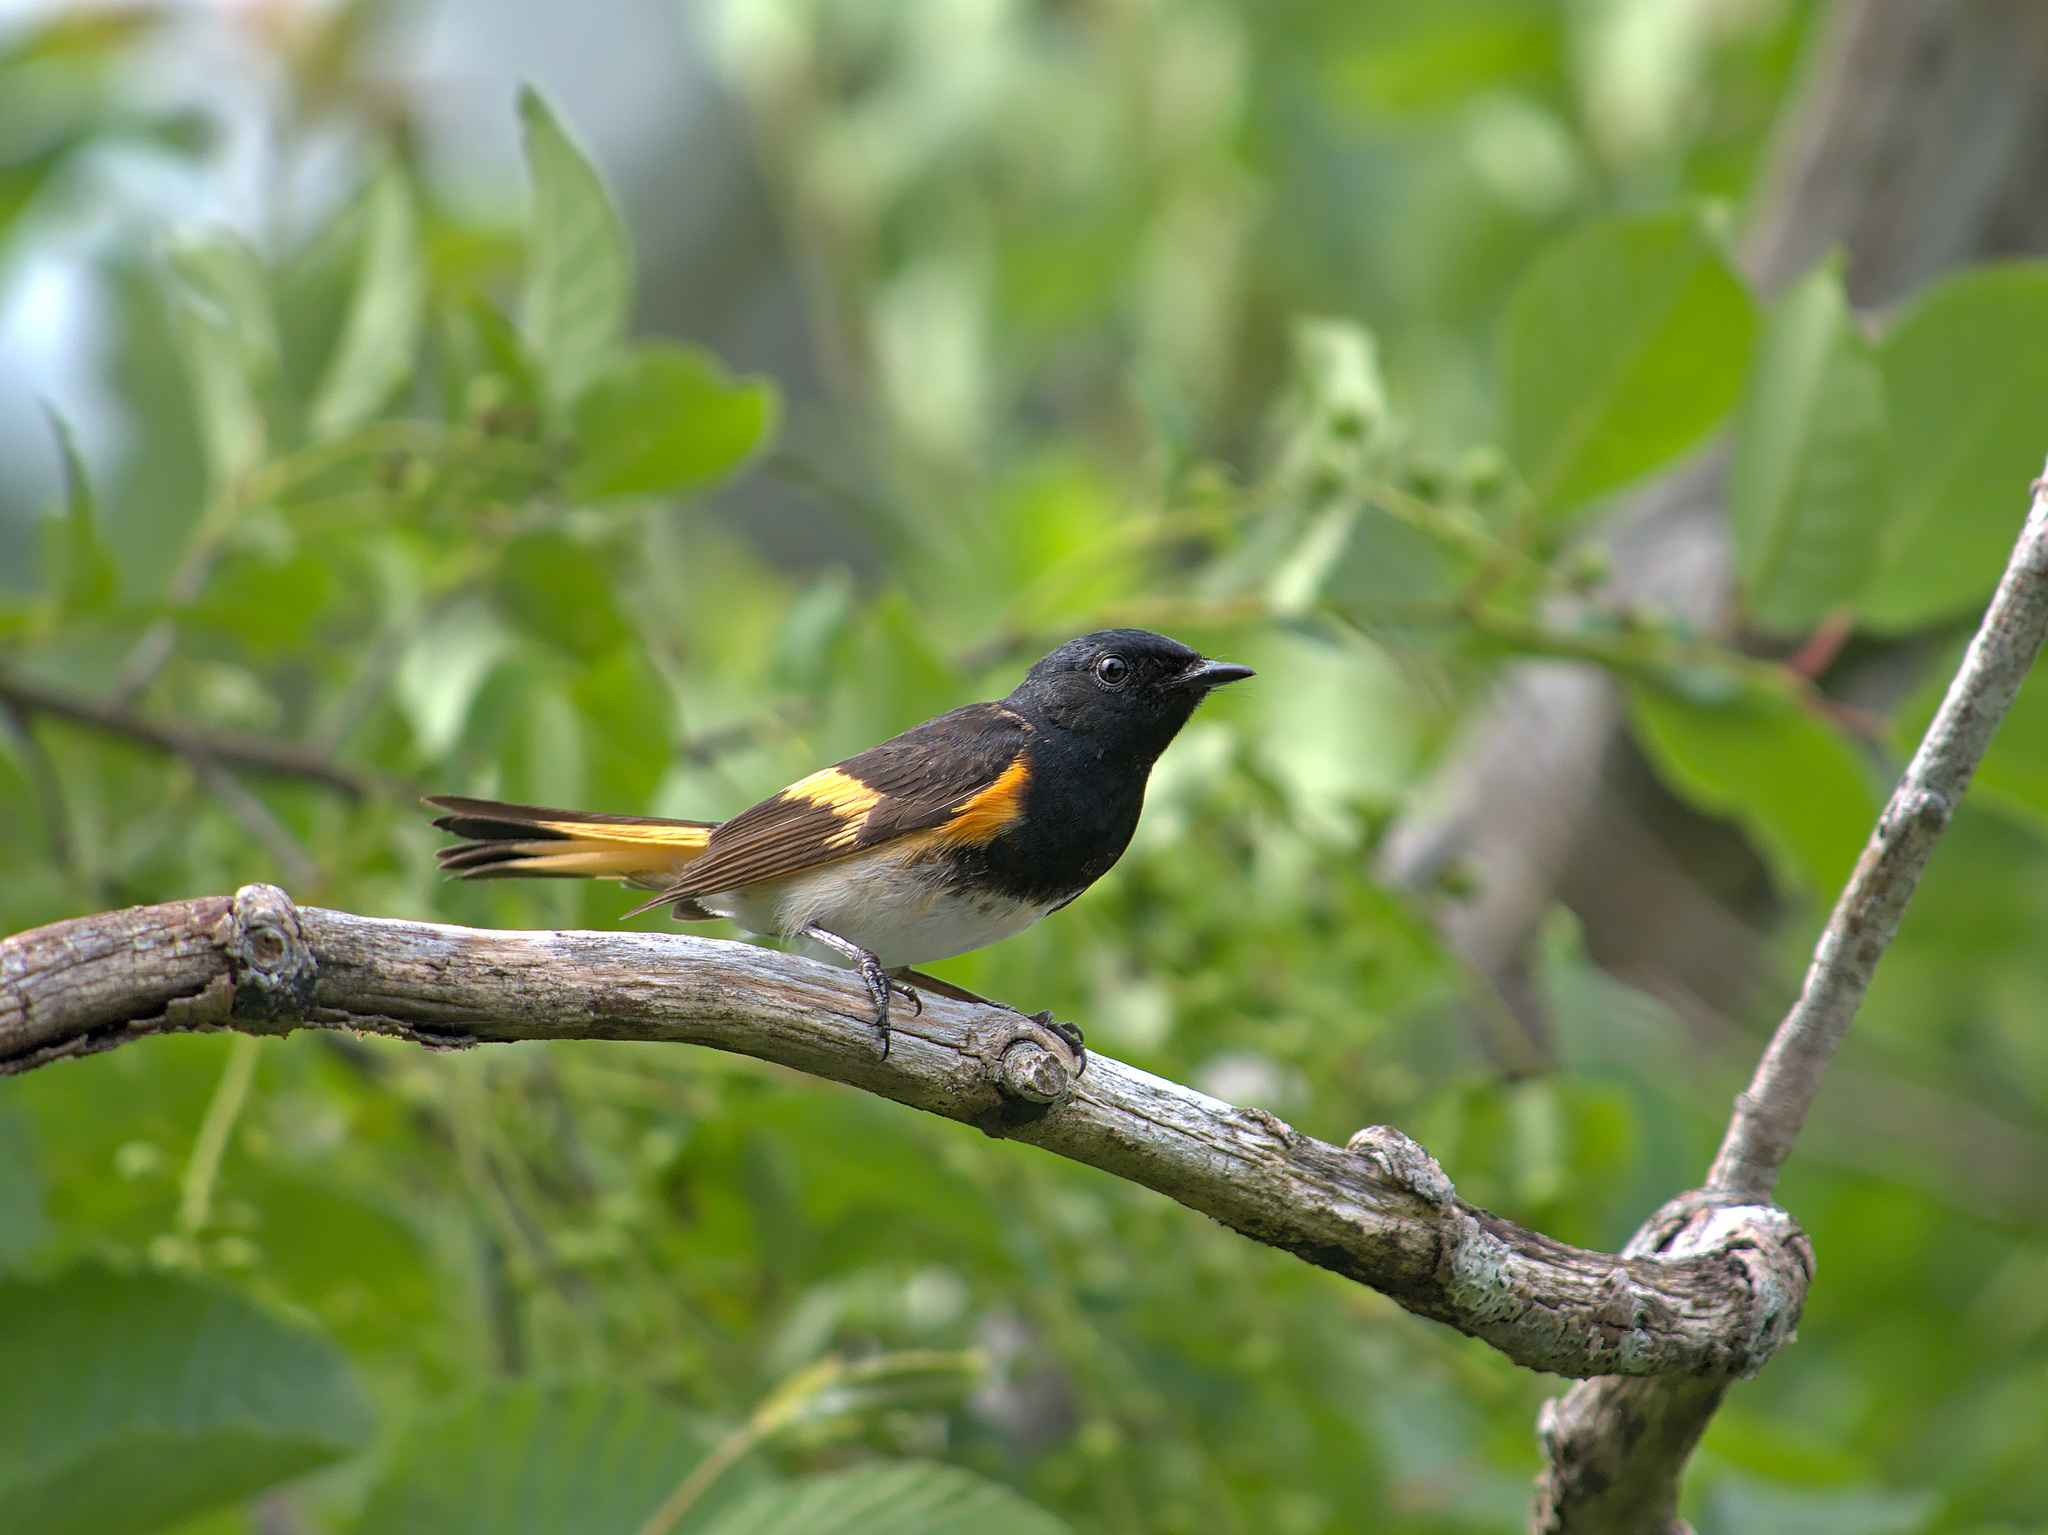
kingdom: Animalia
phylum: Chordata
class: Aves
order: Passeriformes
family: Parulidae
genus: Setophaga
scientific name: Setophaga ruticilla
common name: American redstart
